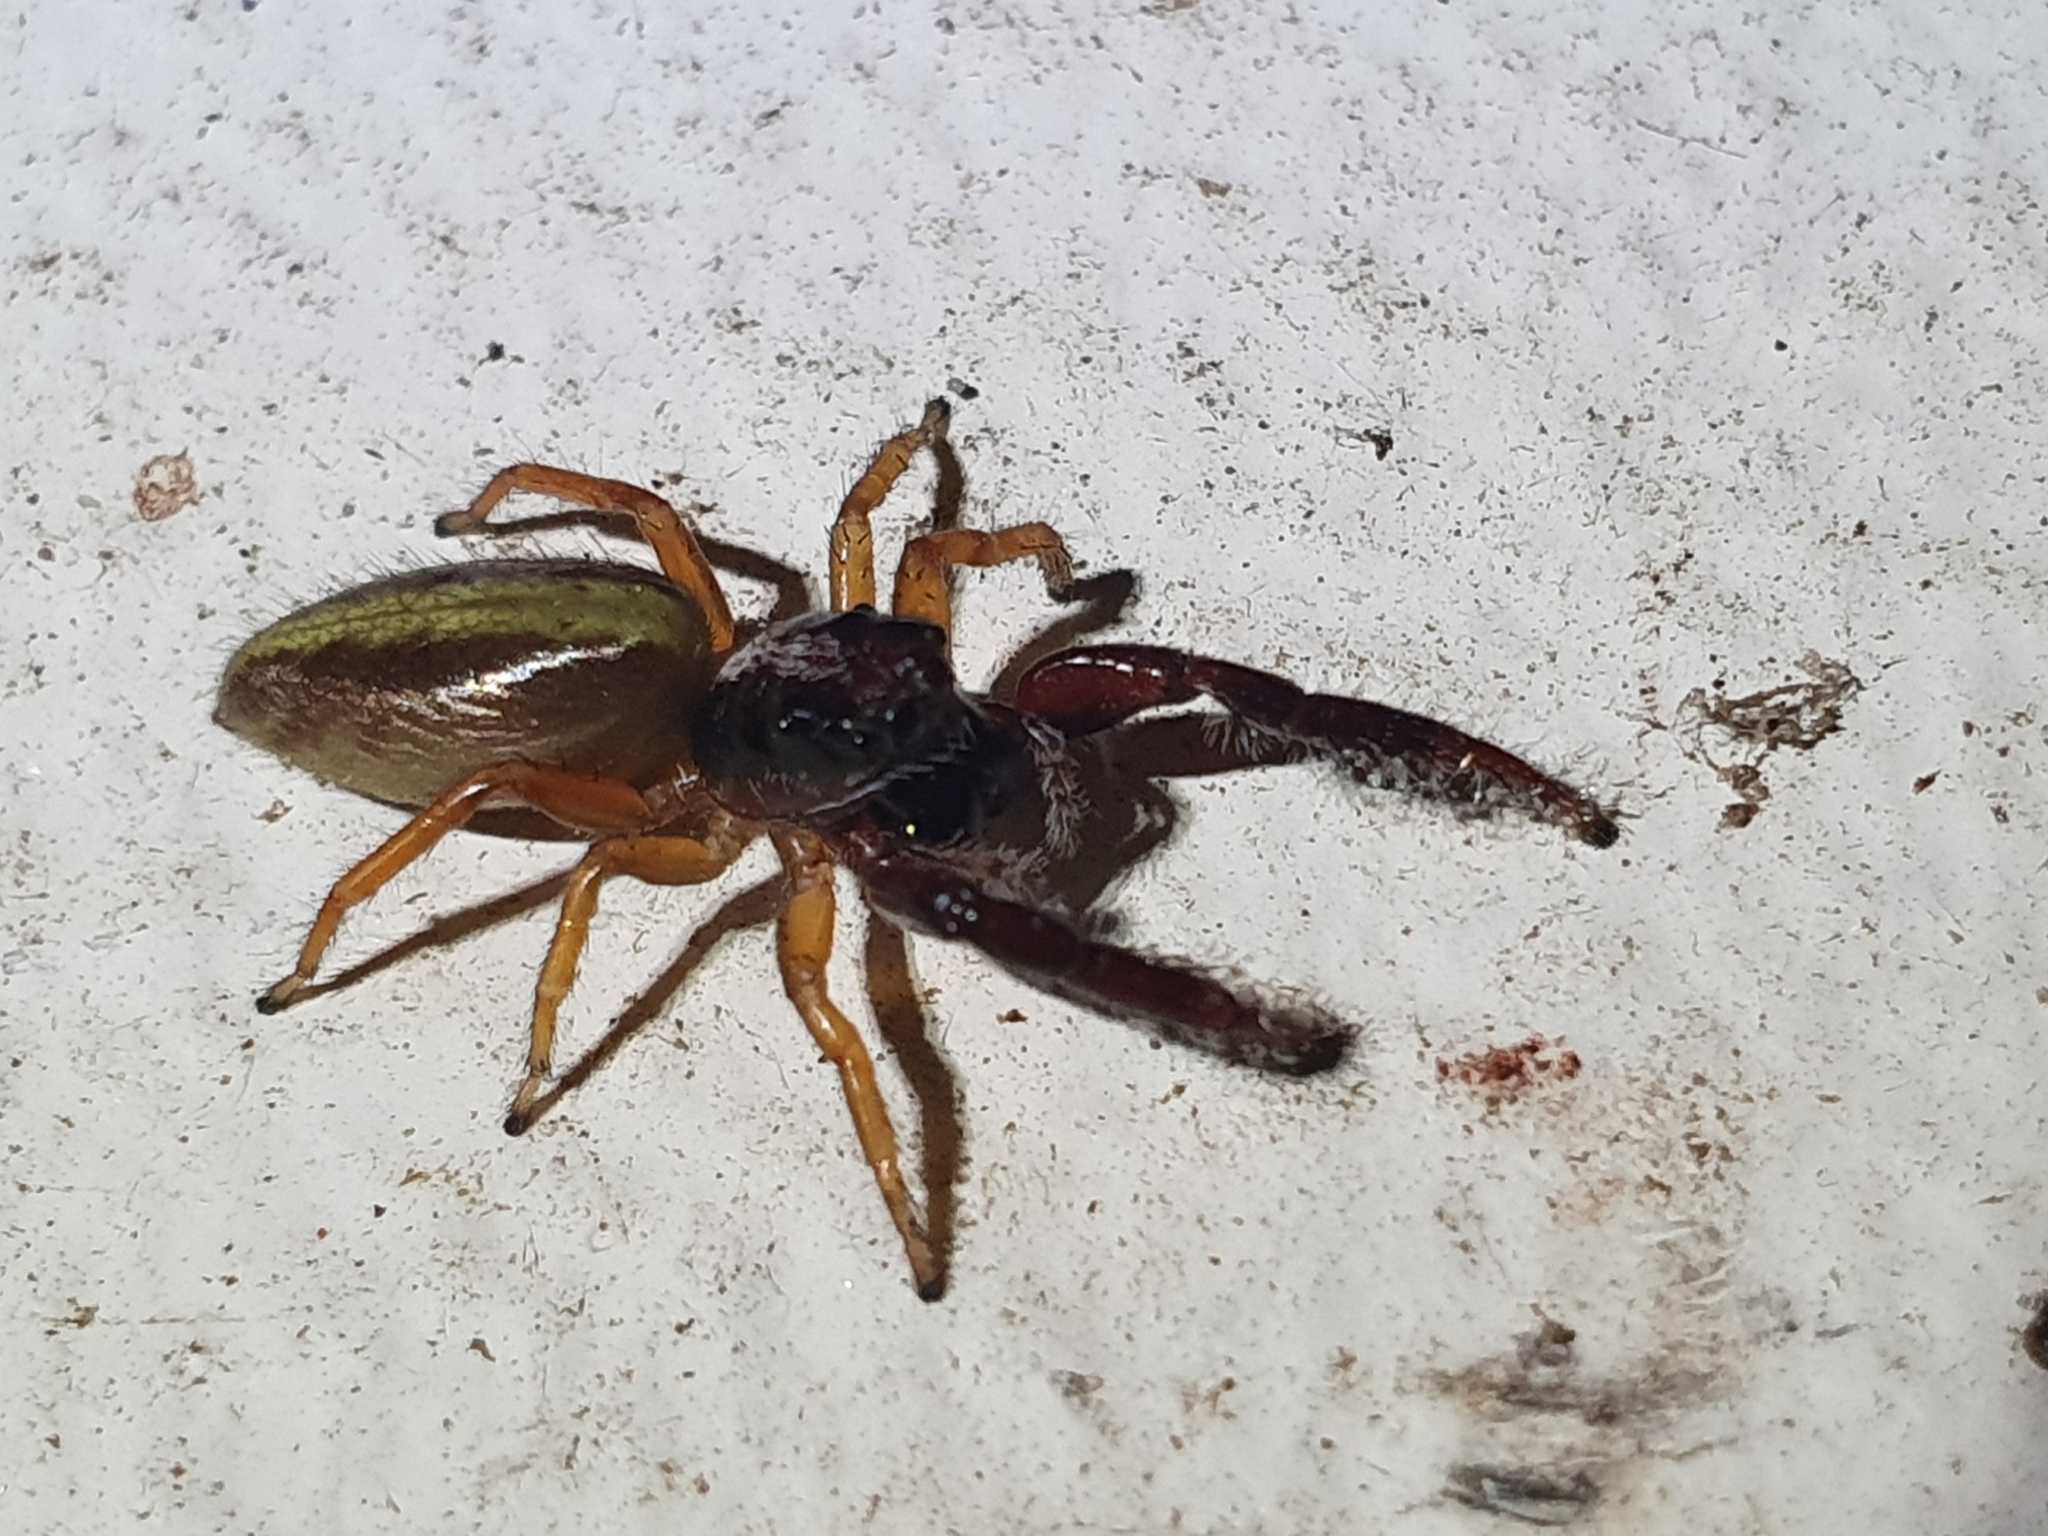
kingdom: Animalia
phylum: Arthropoda
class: Arachnida
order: Araneae
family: Salticidae
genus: Trite
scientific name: Trite planiceps
